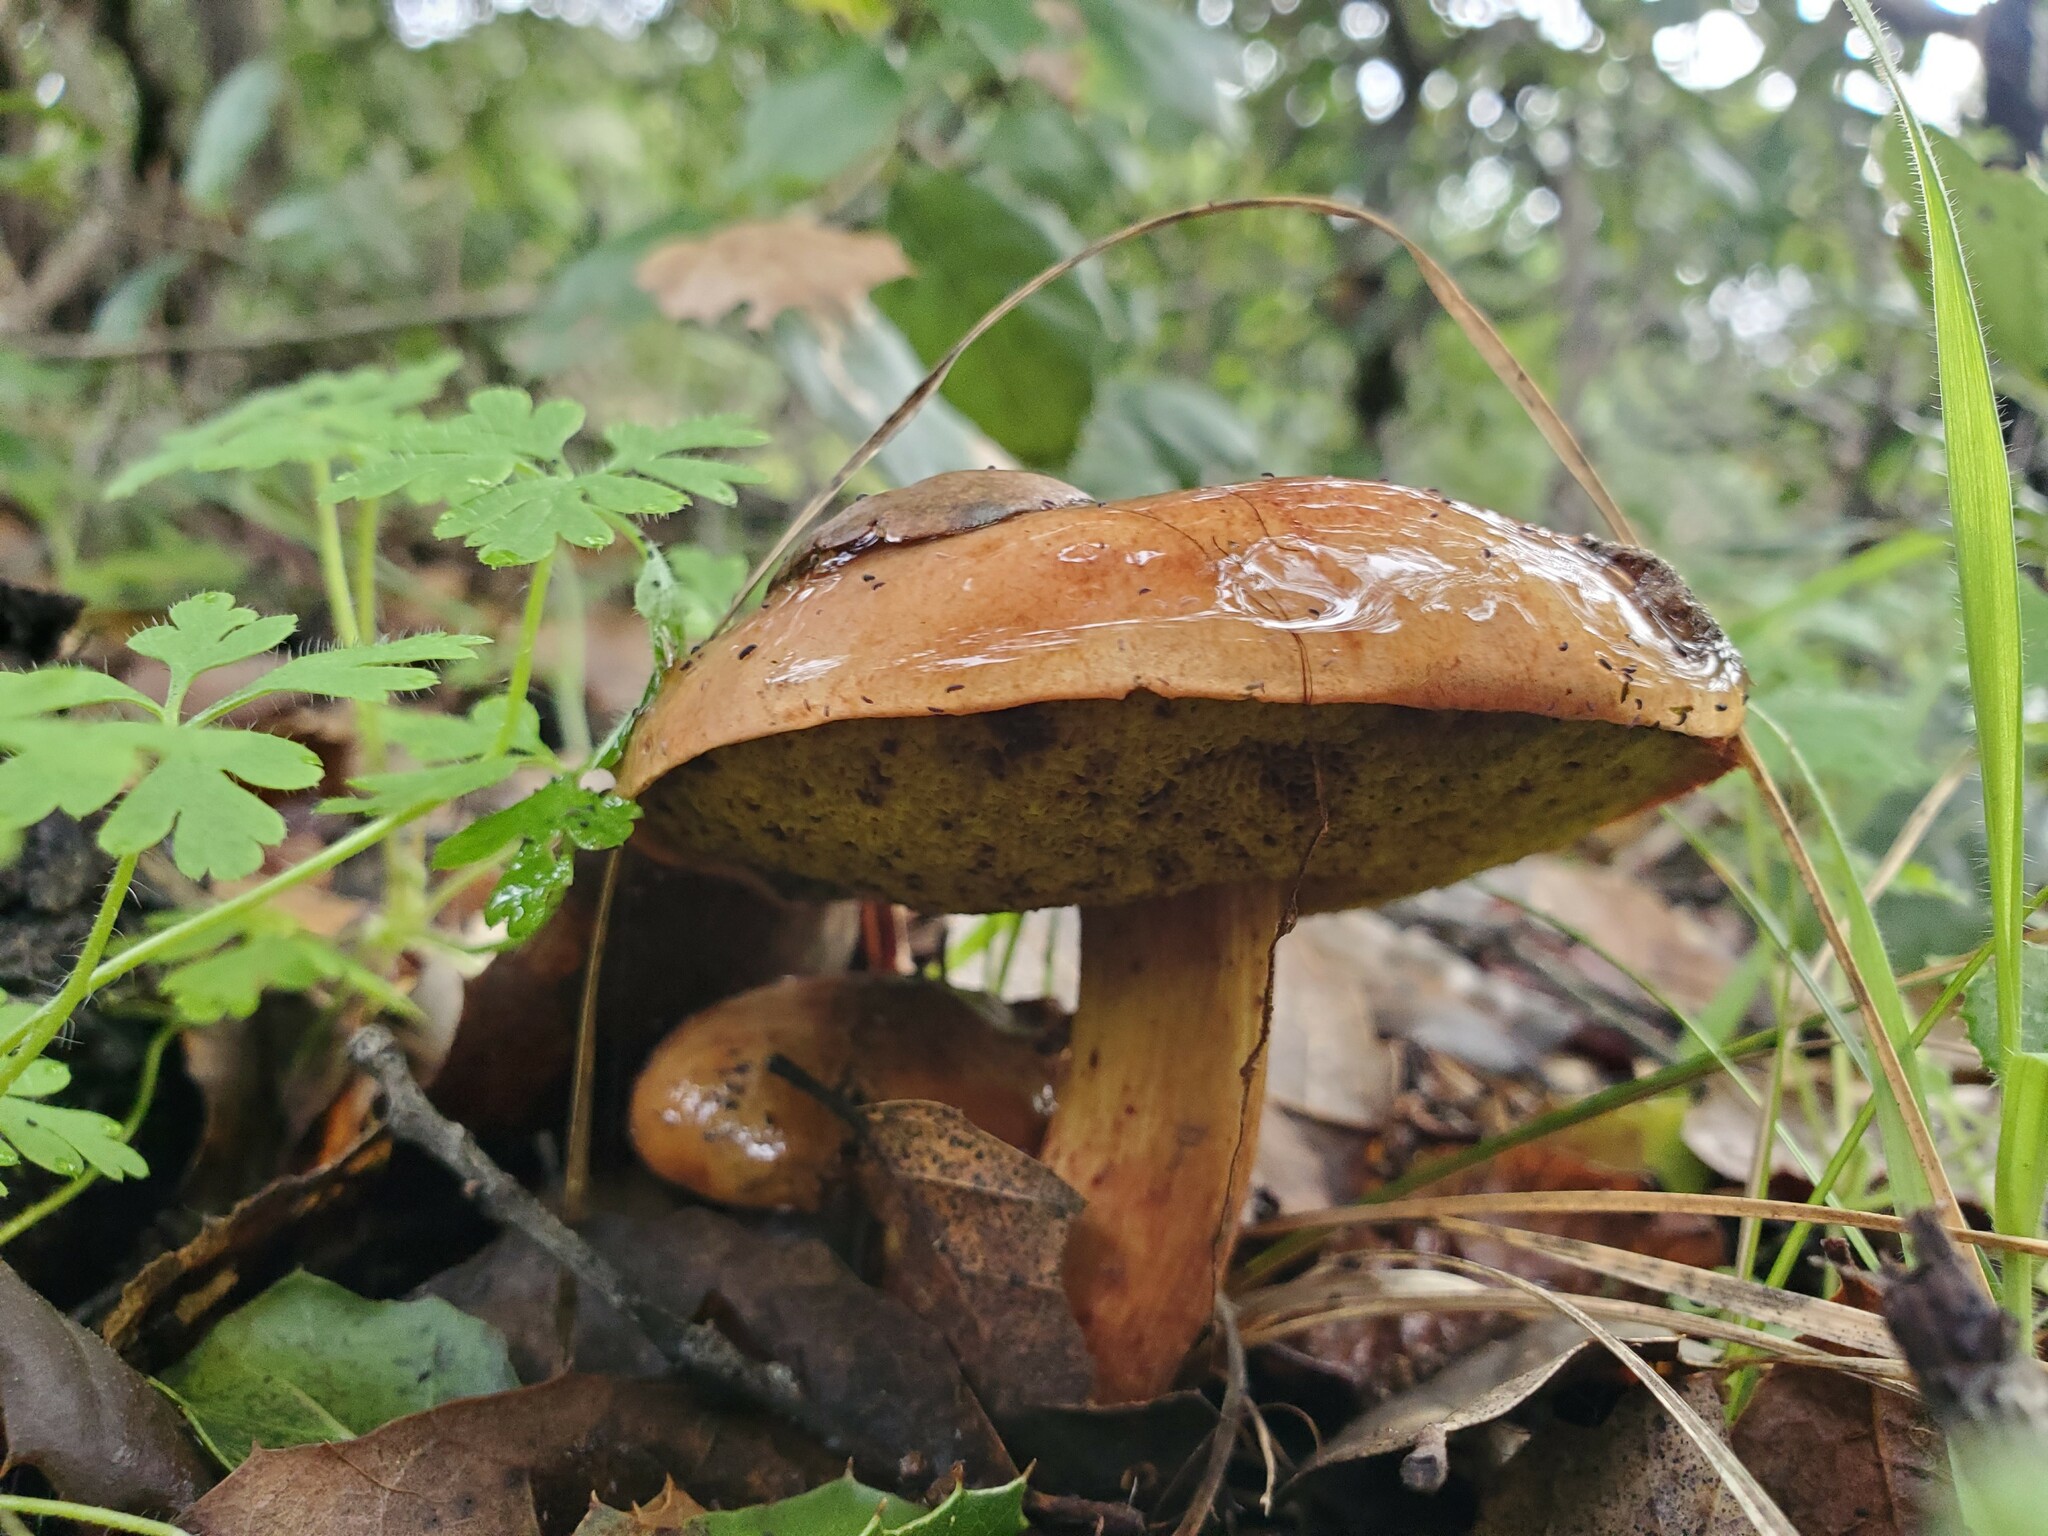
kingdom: Fungi
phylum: Basidiomycota
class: Agaricomycetes
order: Boletales
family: Boletaceae
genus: Aureoboletus
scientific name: Aureoboletus flaviporus
